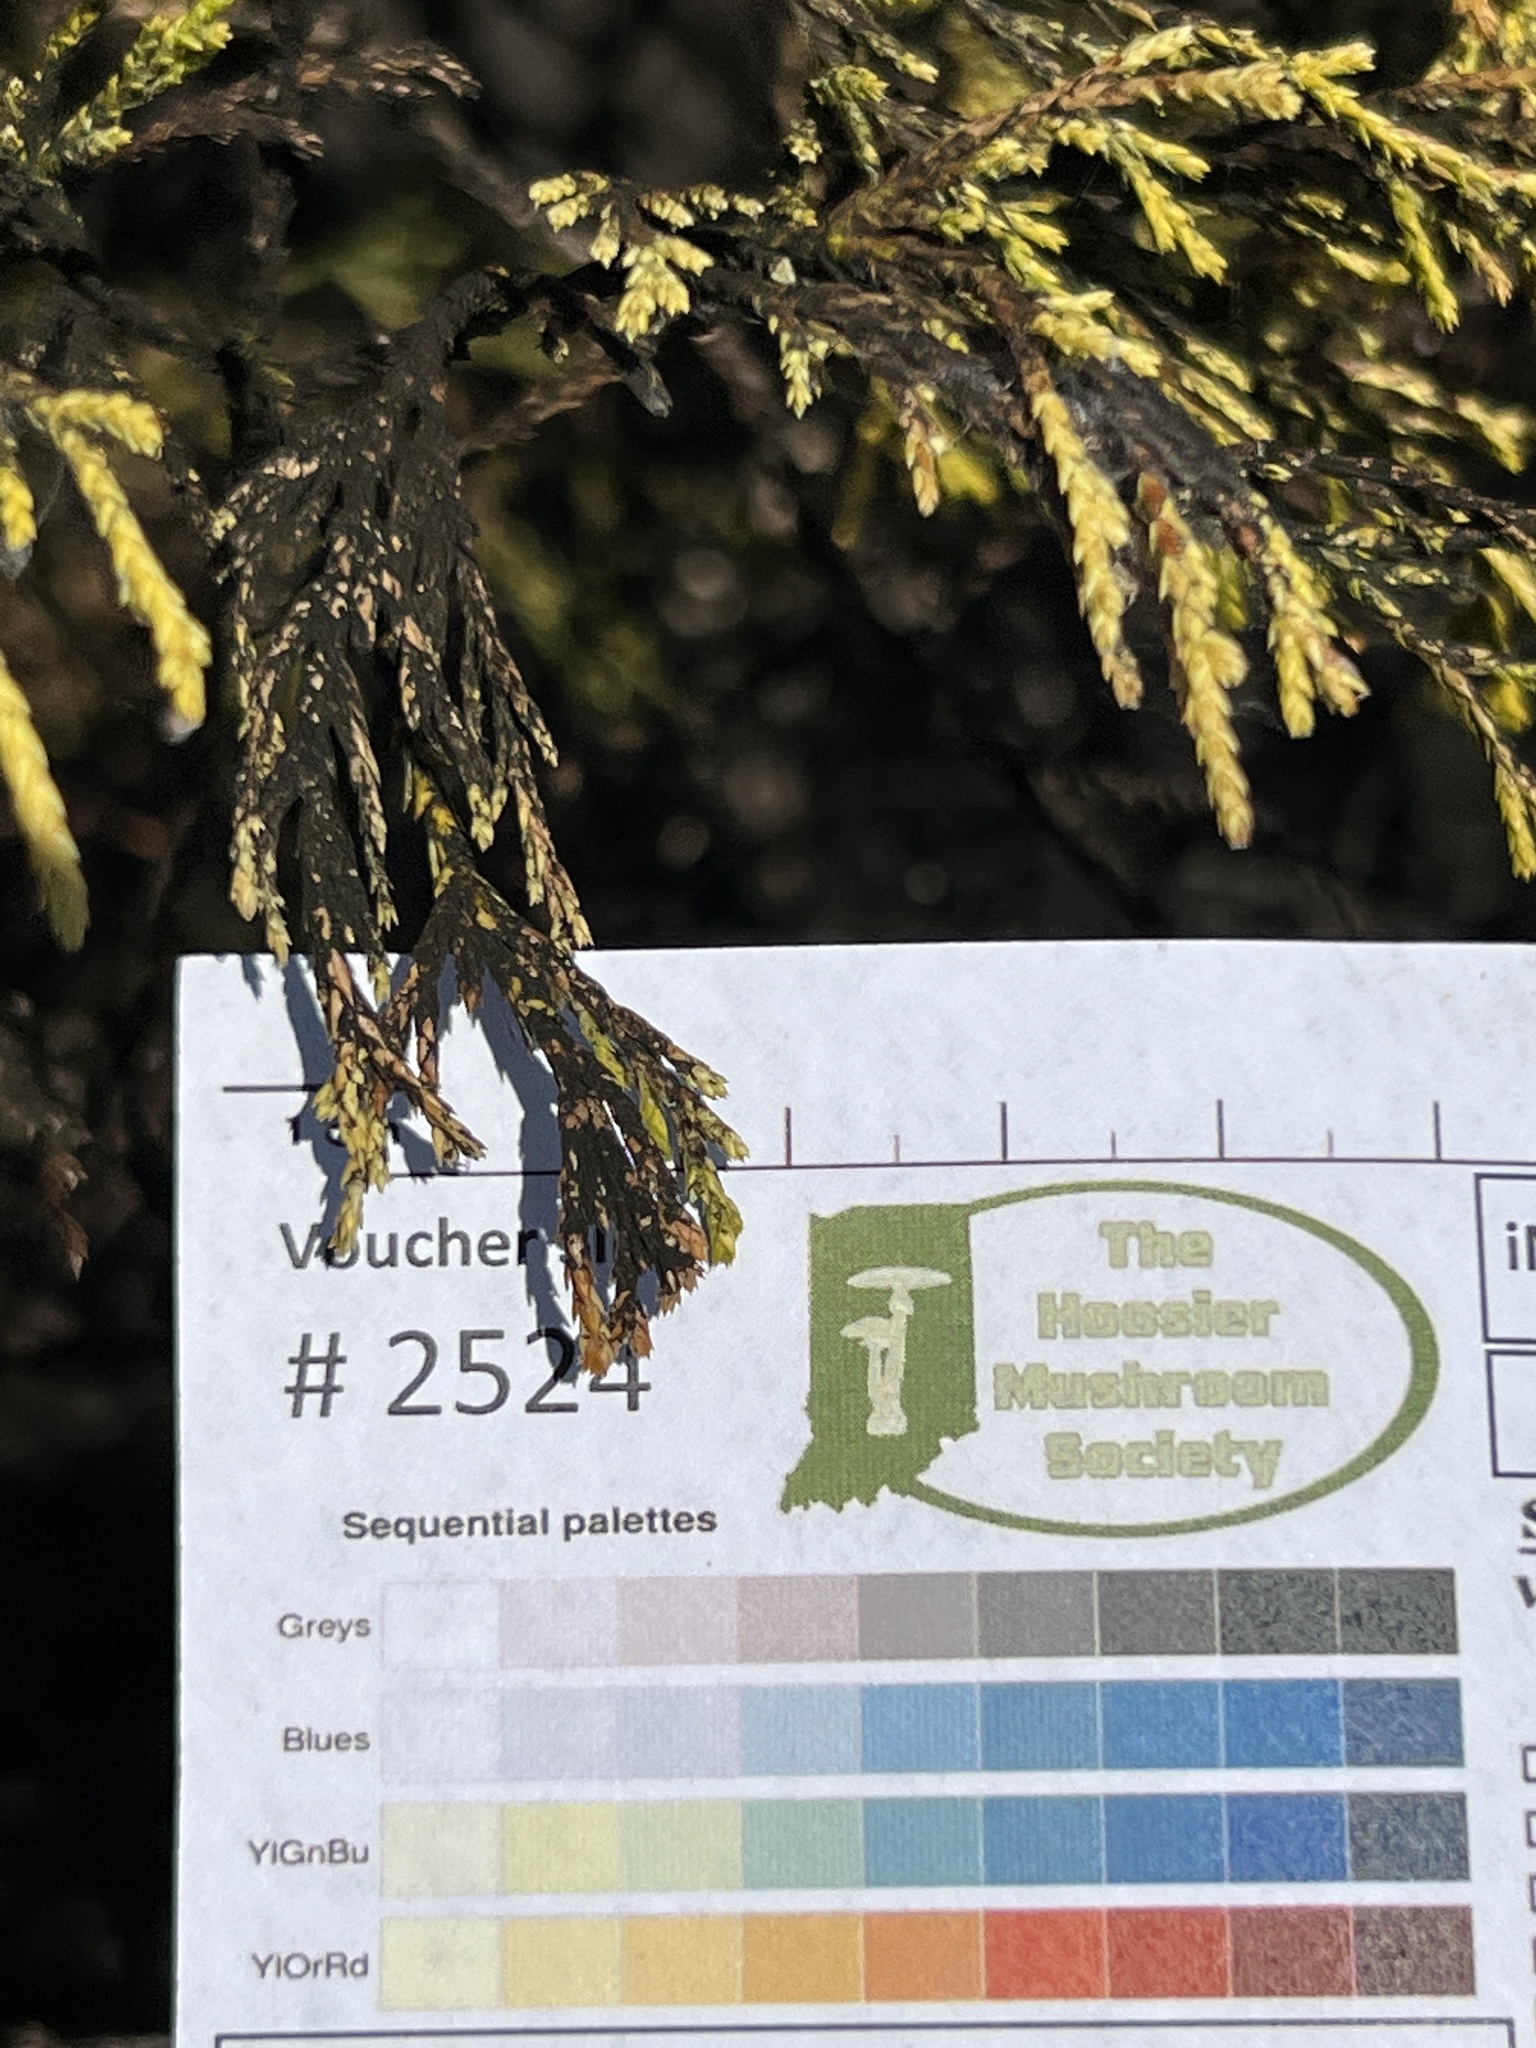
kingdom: Fungi
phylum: Ascomycota
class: Dothideomycetes
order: Capnodiales
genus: Baudoinia
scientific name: Baudoinia compniacensis
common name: Angel's share
